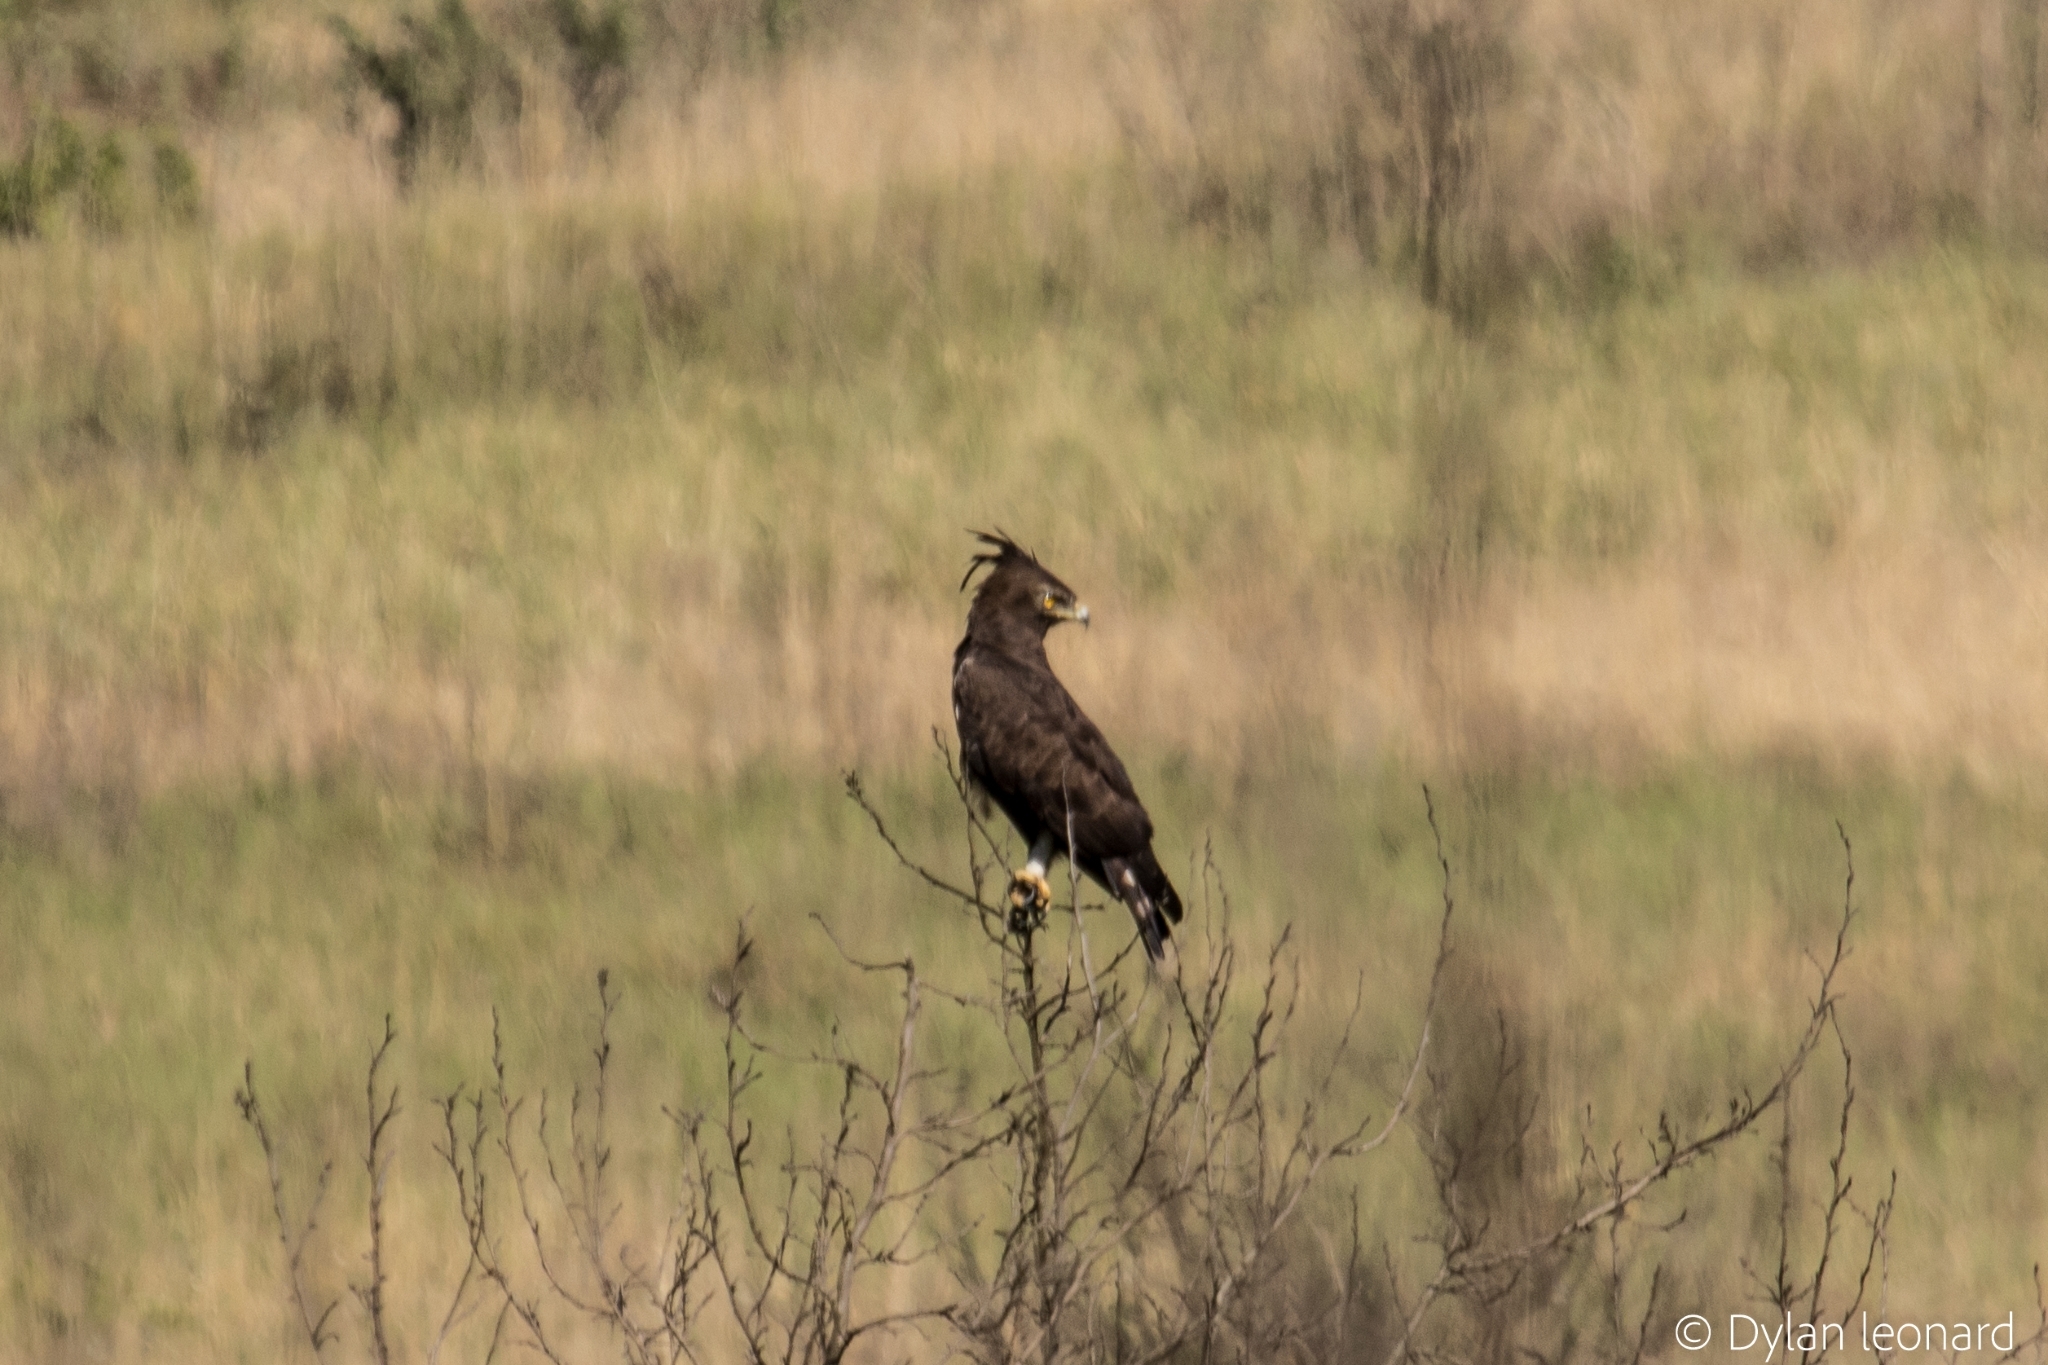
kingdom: Animalia
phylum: Chordata
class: Aves
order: Accipitriformes
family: Accipitridae
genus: Lophaetus
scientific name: Lophaetus occipitalis
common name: Long-crested eagle
